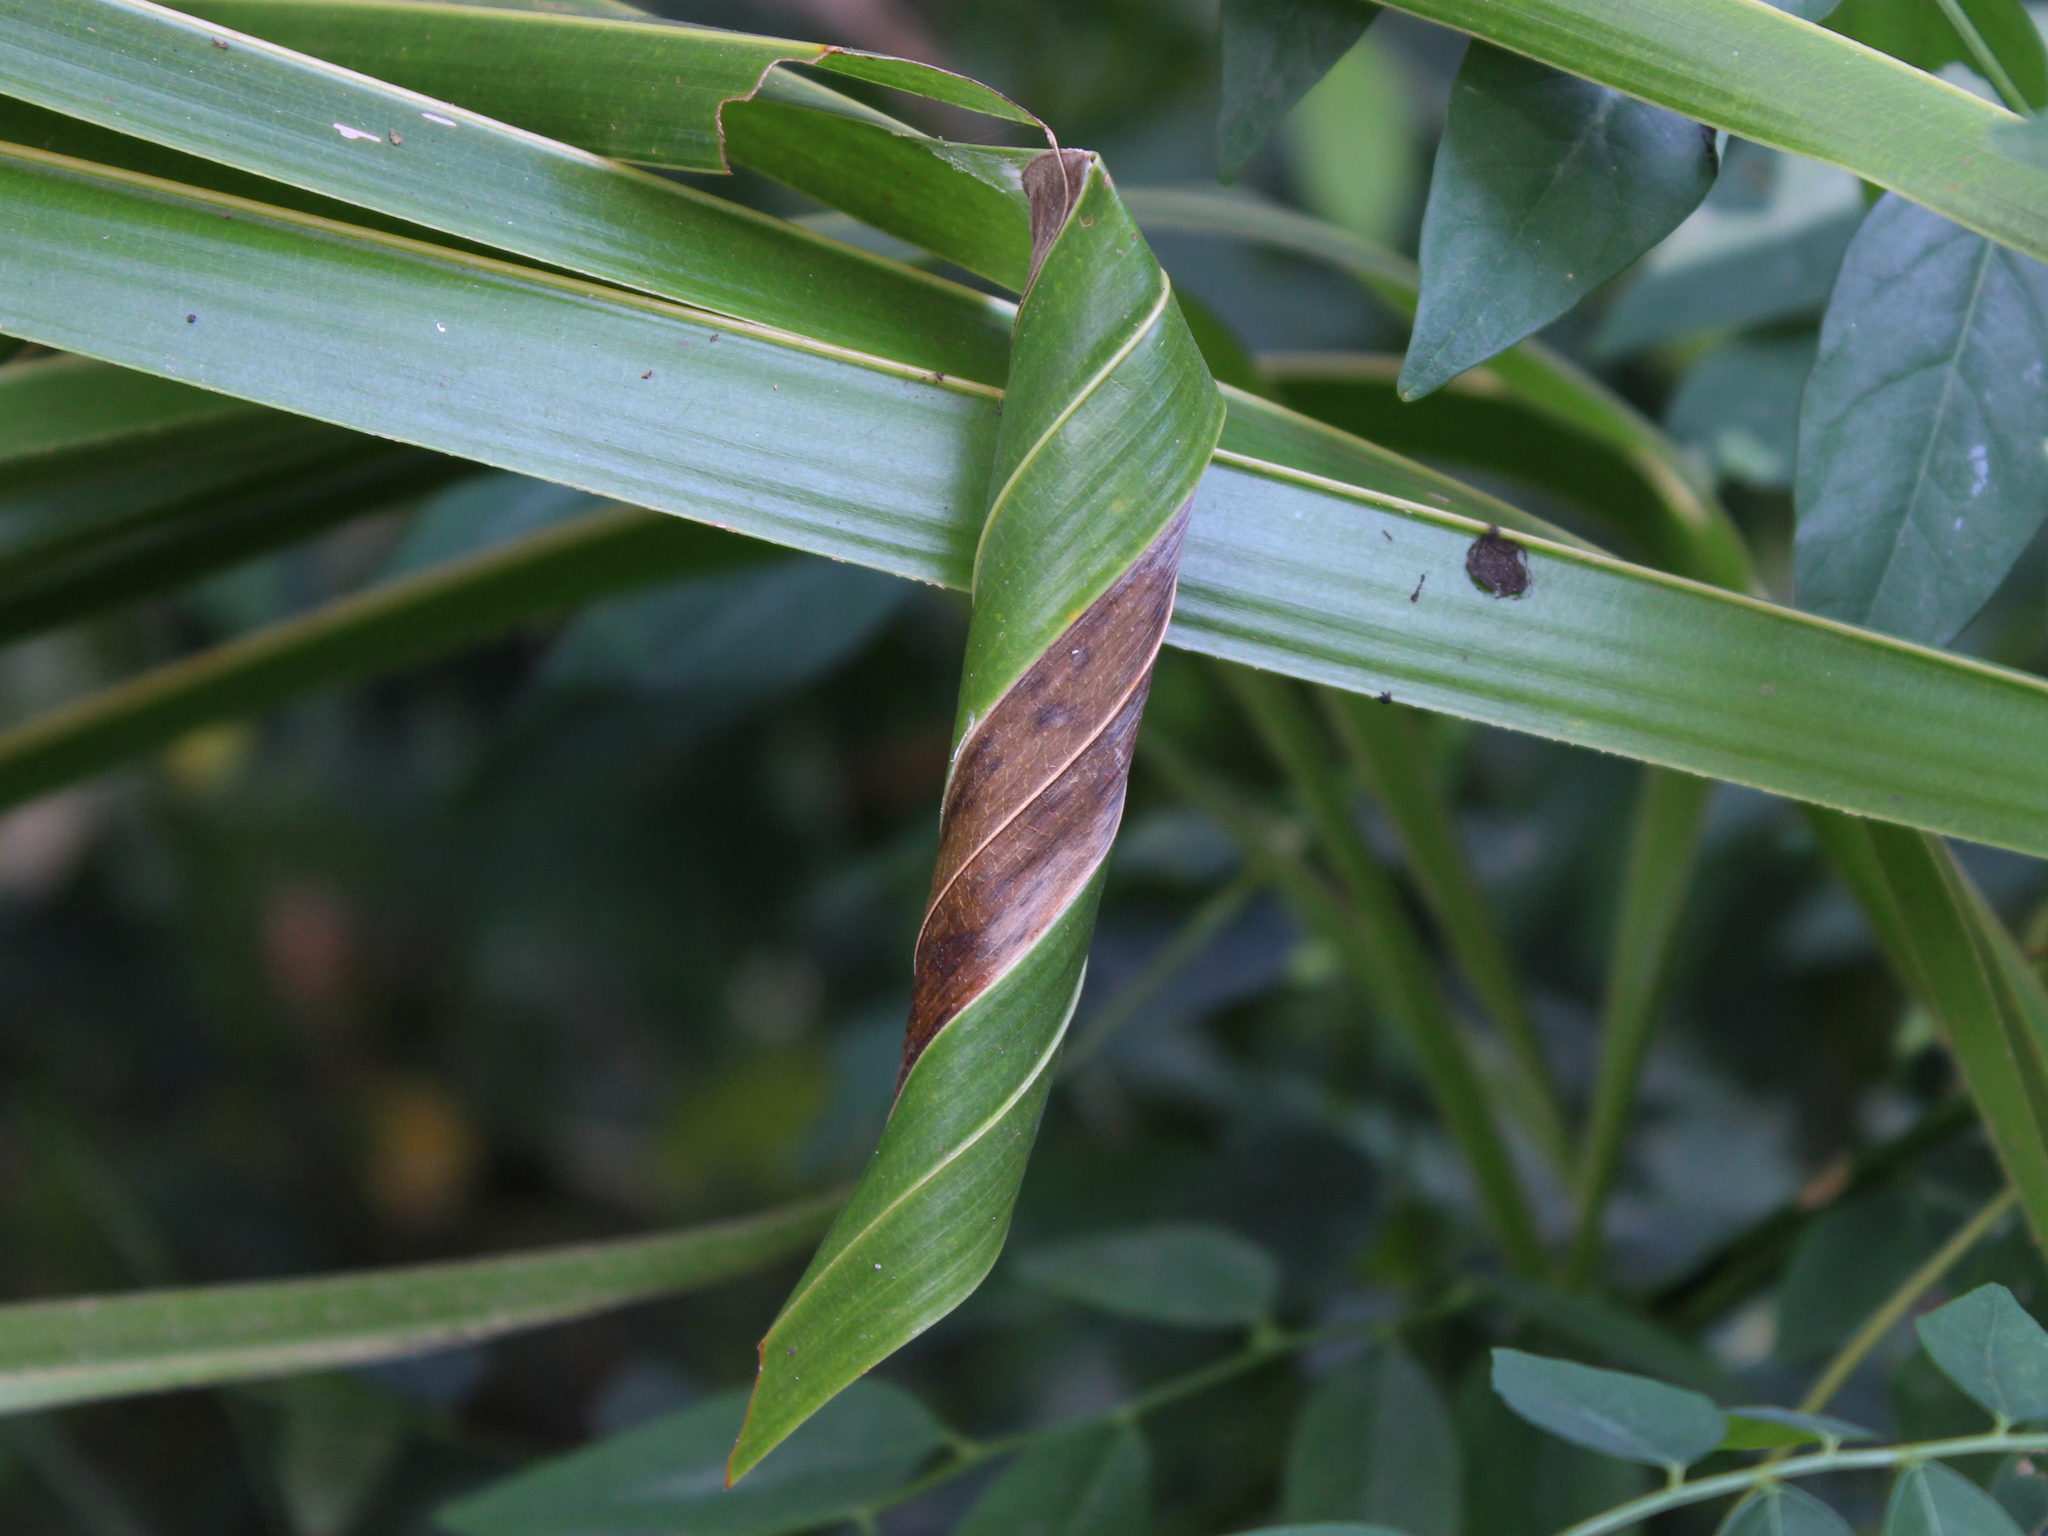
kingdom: Animalia
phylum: Arthropoda
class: Insecta
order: Lepidoptera
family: Hesperiidae
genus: Gangara
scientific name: Gangara thyrsis
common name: Giant redeye
